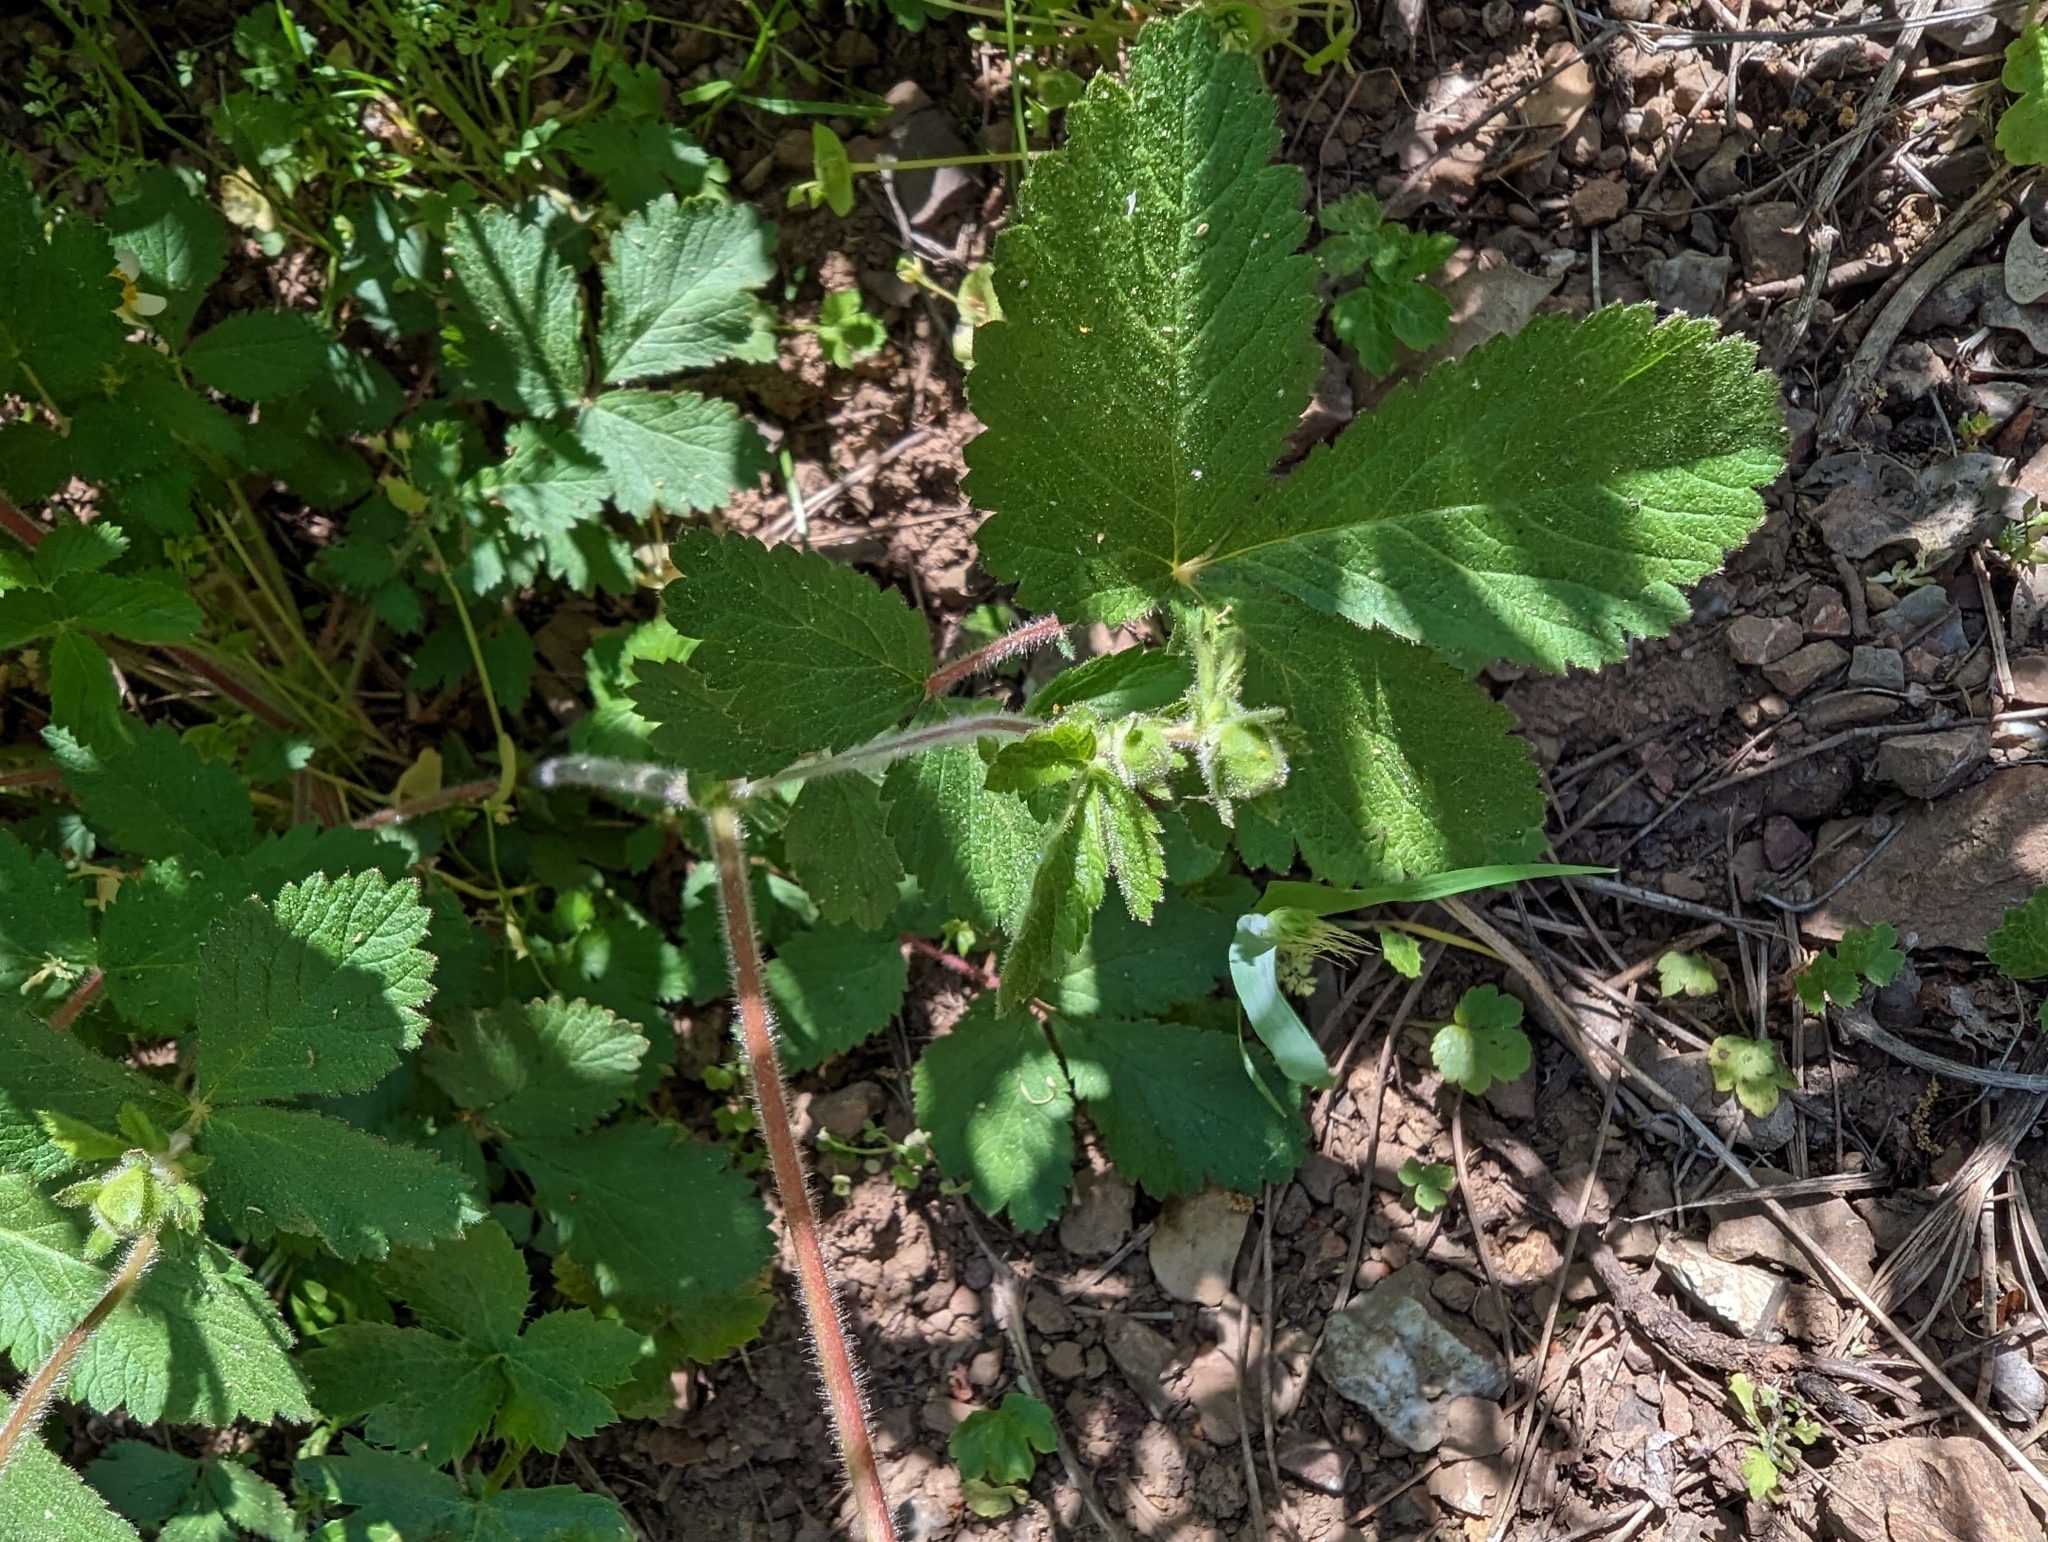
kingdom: Plantae
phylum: Tracheophyta
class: Magnoliopsida
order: Rosales
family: Rosaceae
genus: Drymocallis
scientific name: Drymocallis glandulosa
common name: Sticky cinquefoil
